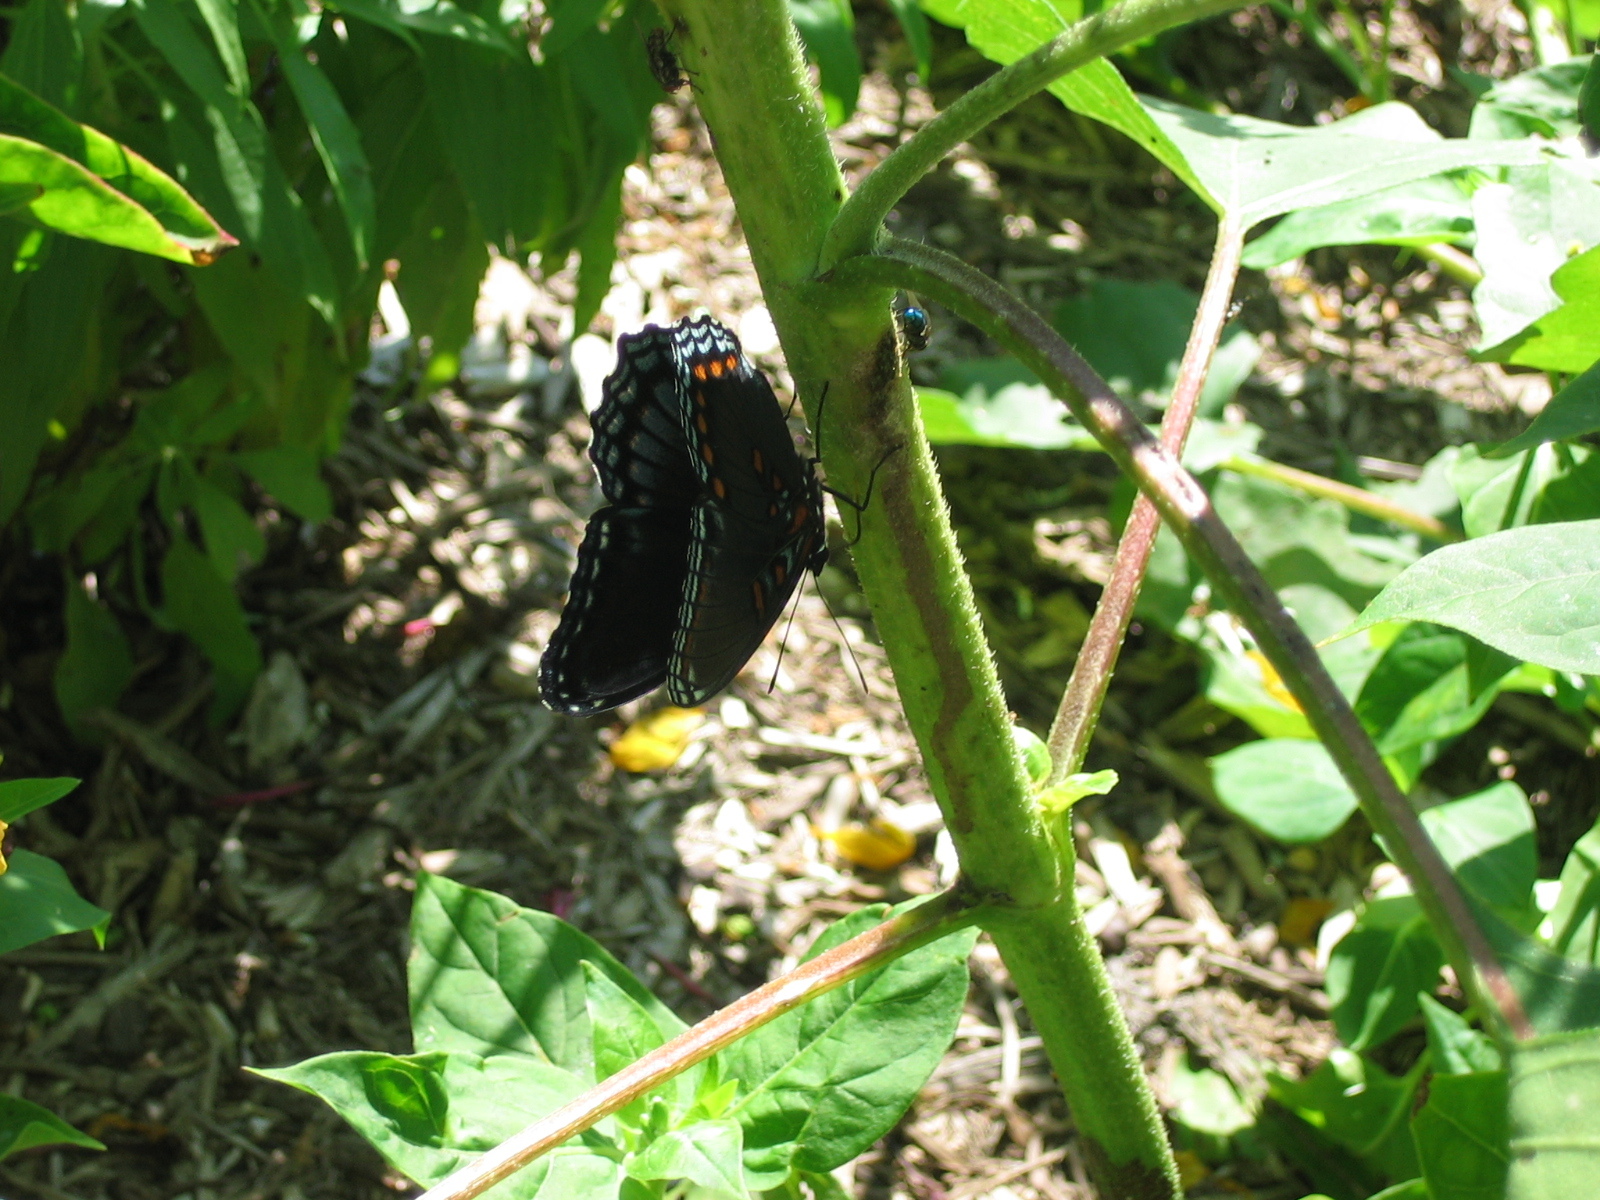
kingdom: Animalia
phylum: Arthropoda
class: Insecta
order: Lepidoptera
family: Nymphalidae
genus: Limenitis
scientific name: Limenitis arthemis
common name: Red-spotted admiral
